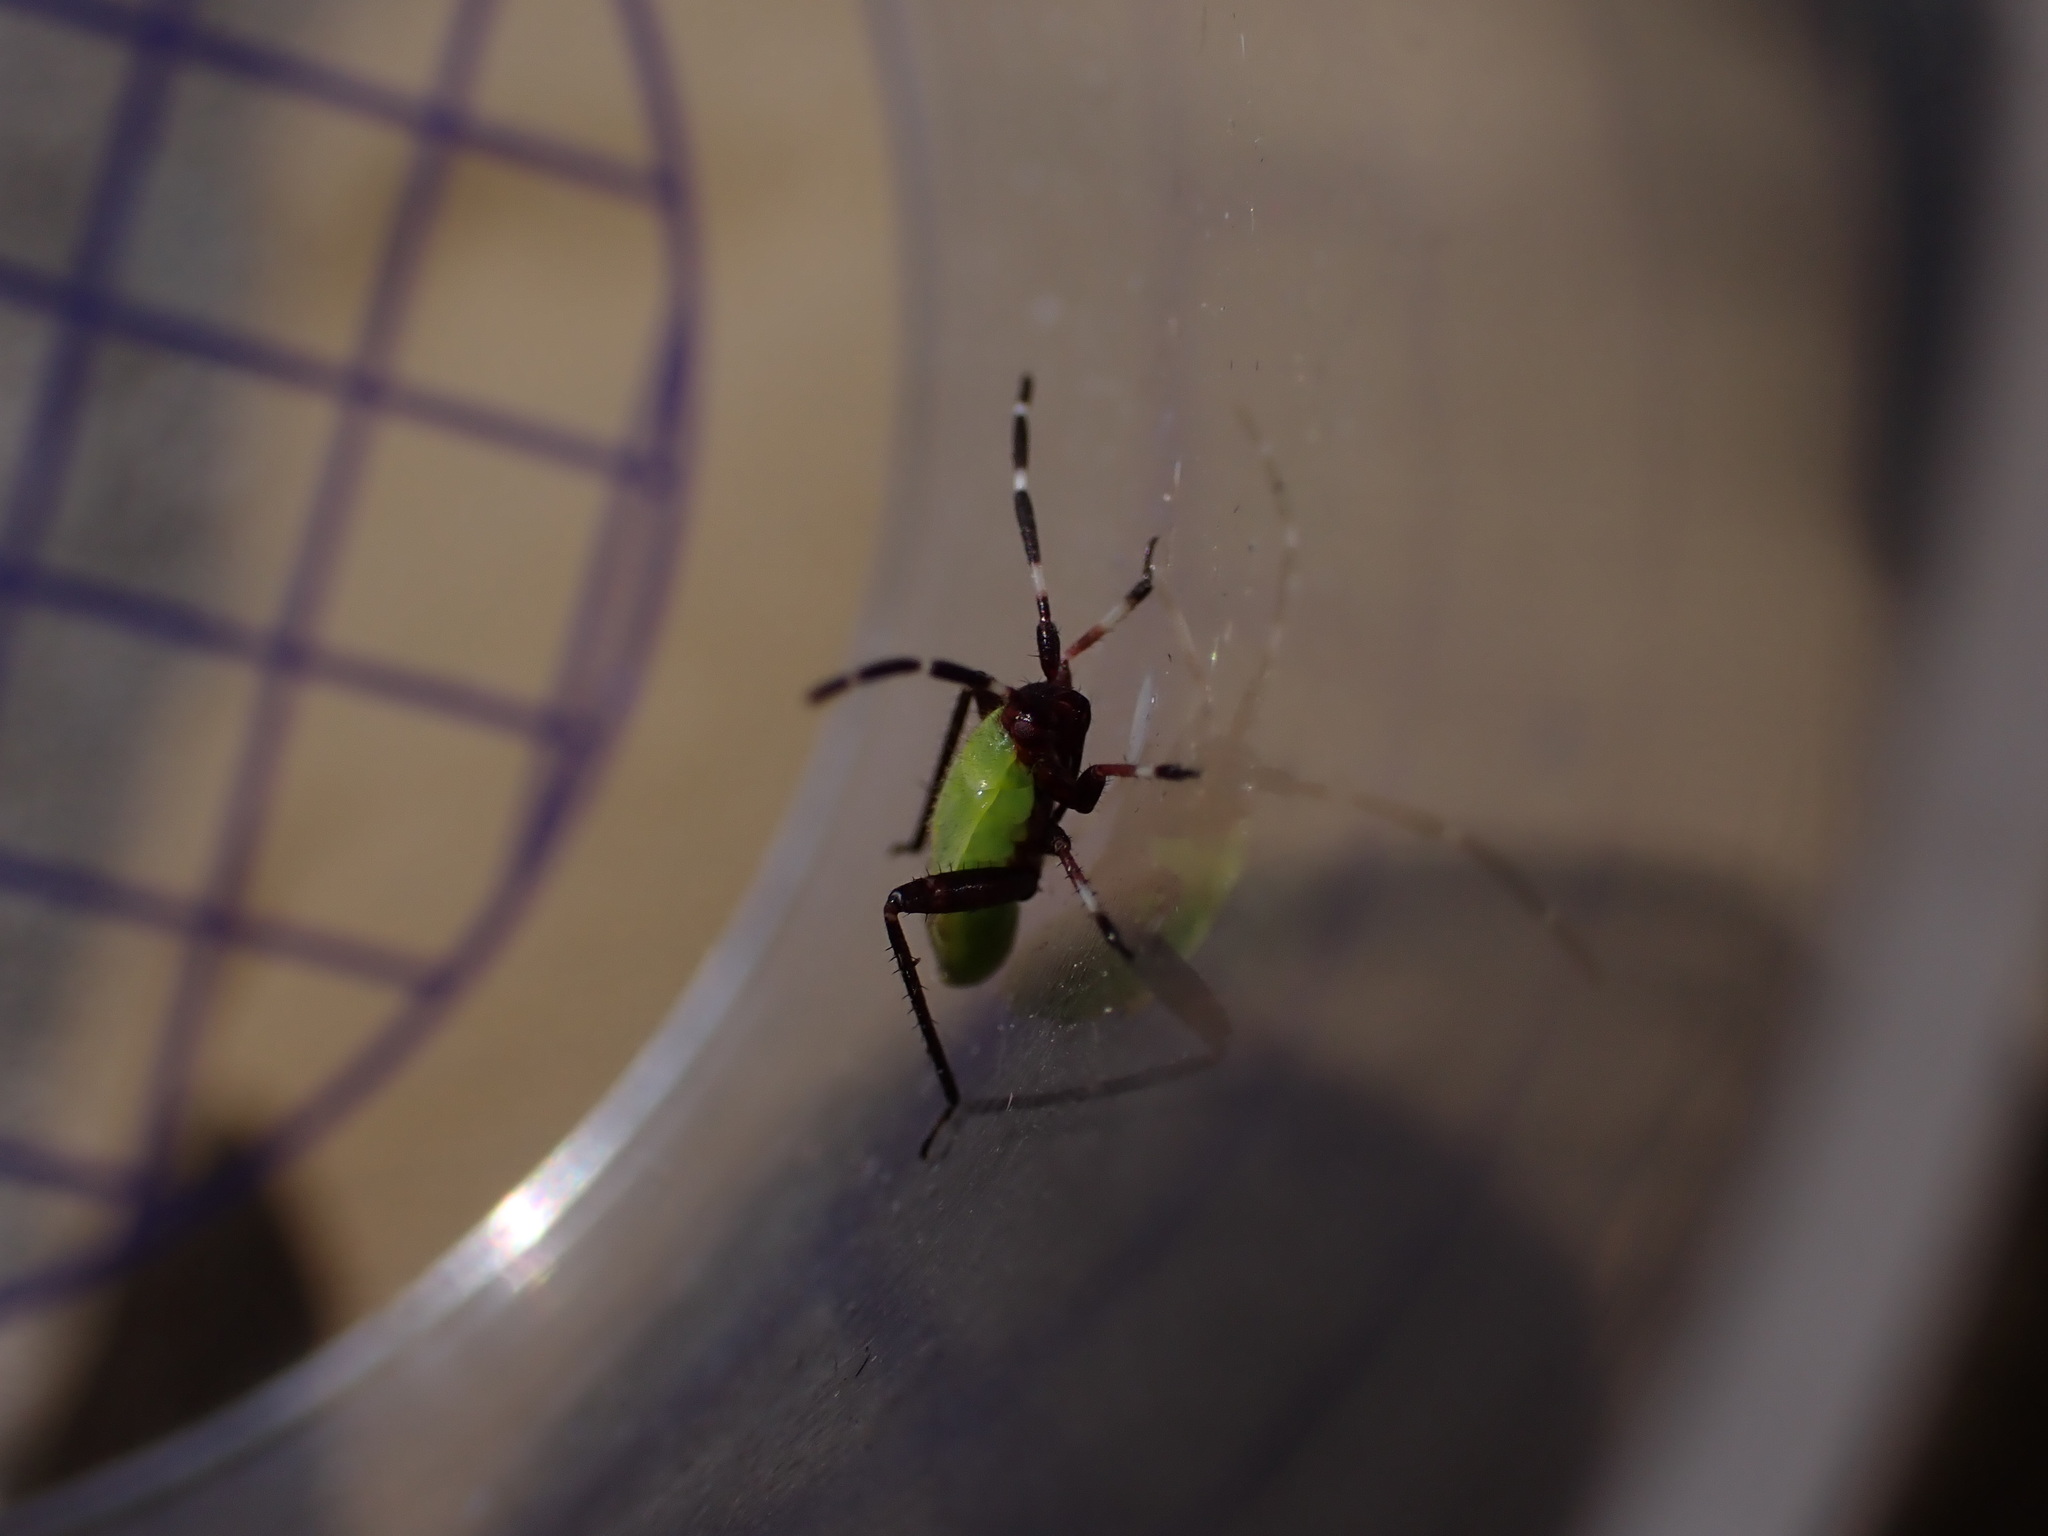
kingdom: Animalia
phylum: Arthropoda
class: Insecta
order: Hemiptera
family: Miridae
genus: Adelphocoris
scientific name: Adelphocoris vandalicus
